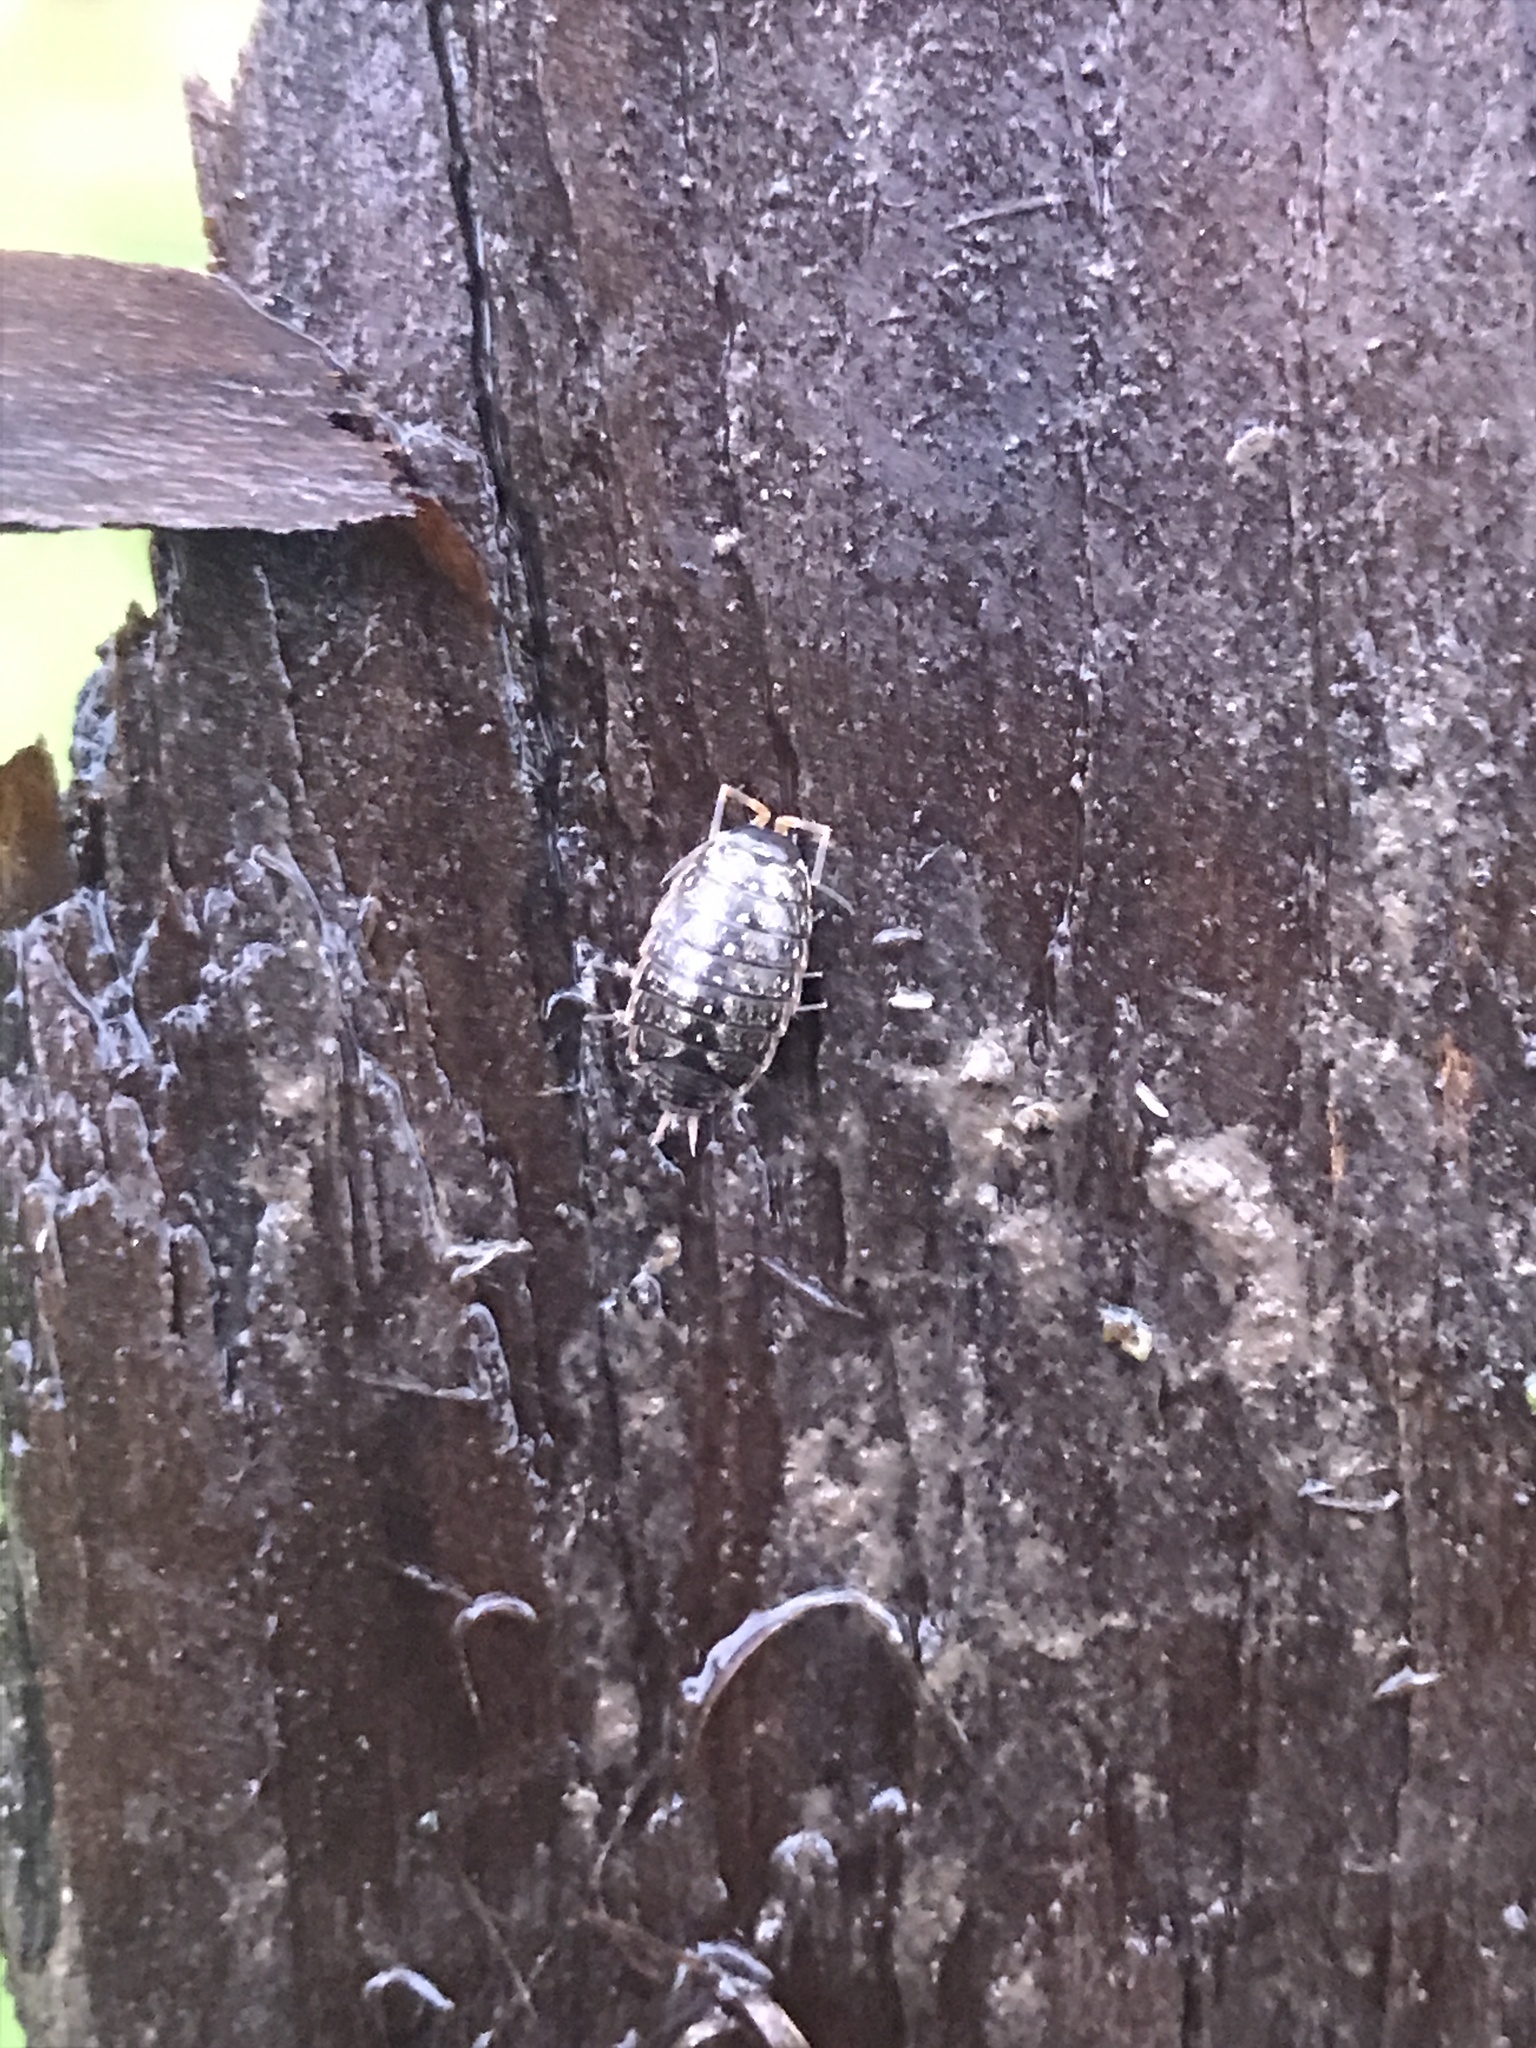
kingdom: Animalia
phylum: Arthropoda
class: Malacostraca
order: Isopoda
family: Philosciidae
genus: Philoscia
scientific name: Philoscia muscorum
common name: Common striped woodlouse
